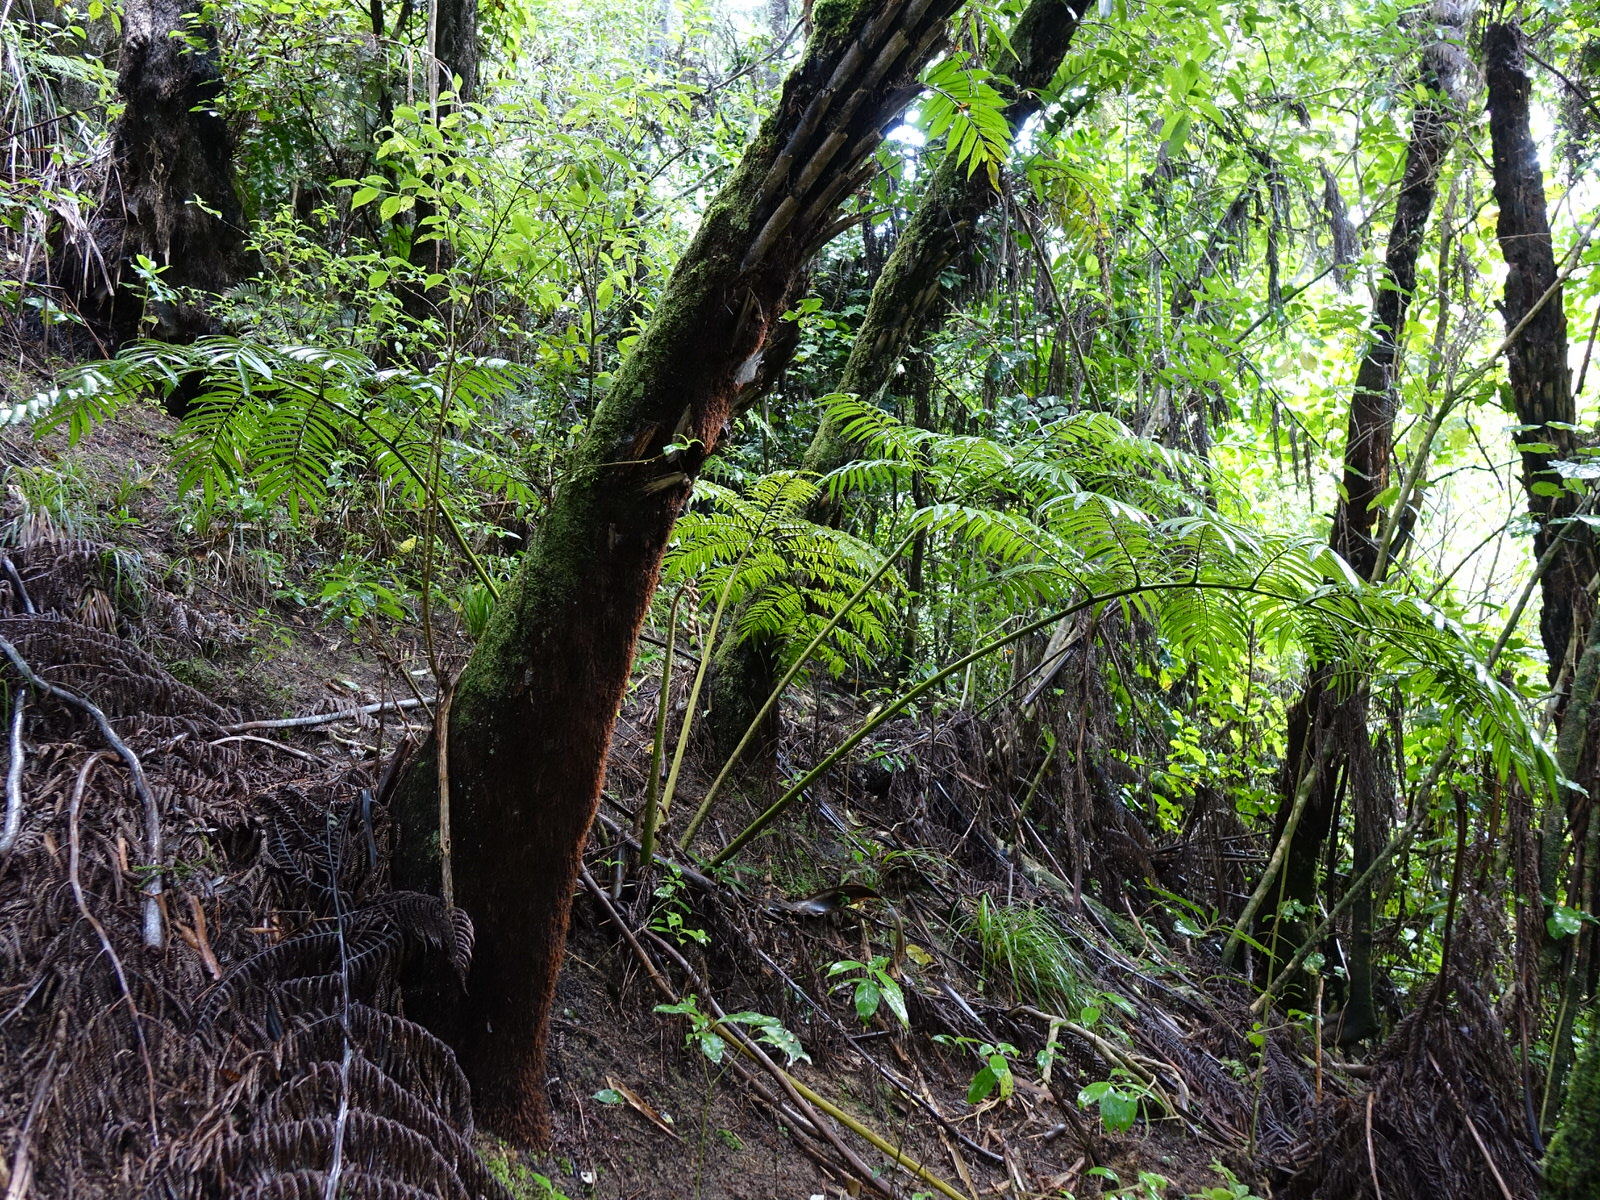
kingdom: Plantae
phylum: Tracheophyta
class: Polypodiopsida
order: Marattiales
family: Marattiaceae
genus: Ptisana
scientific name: Ptisana salicina
